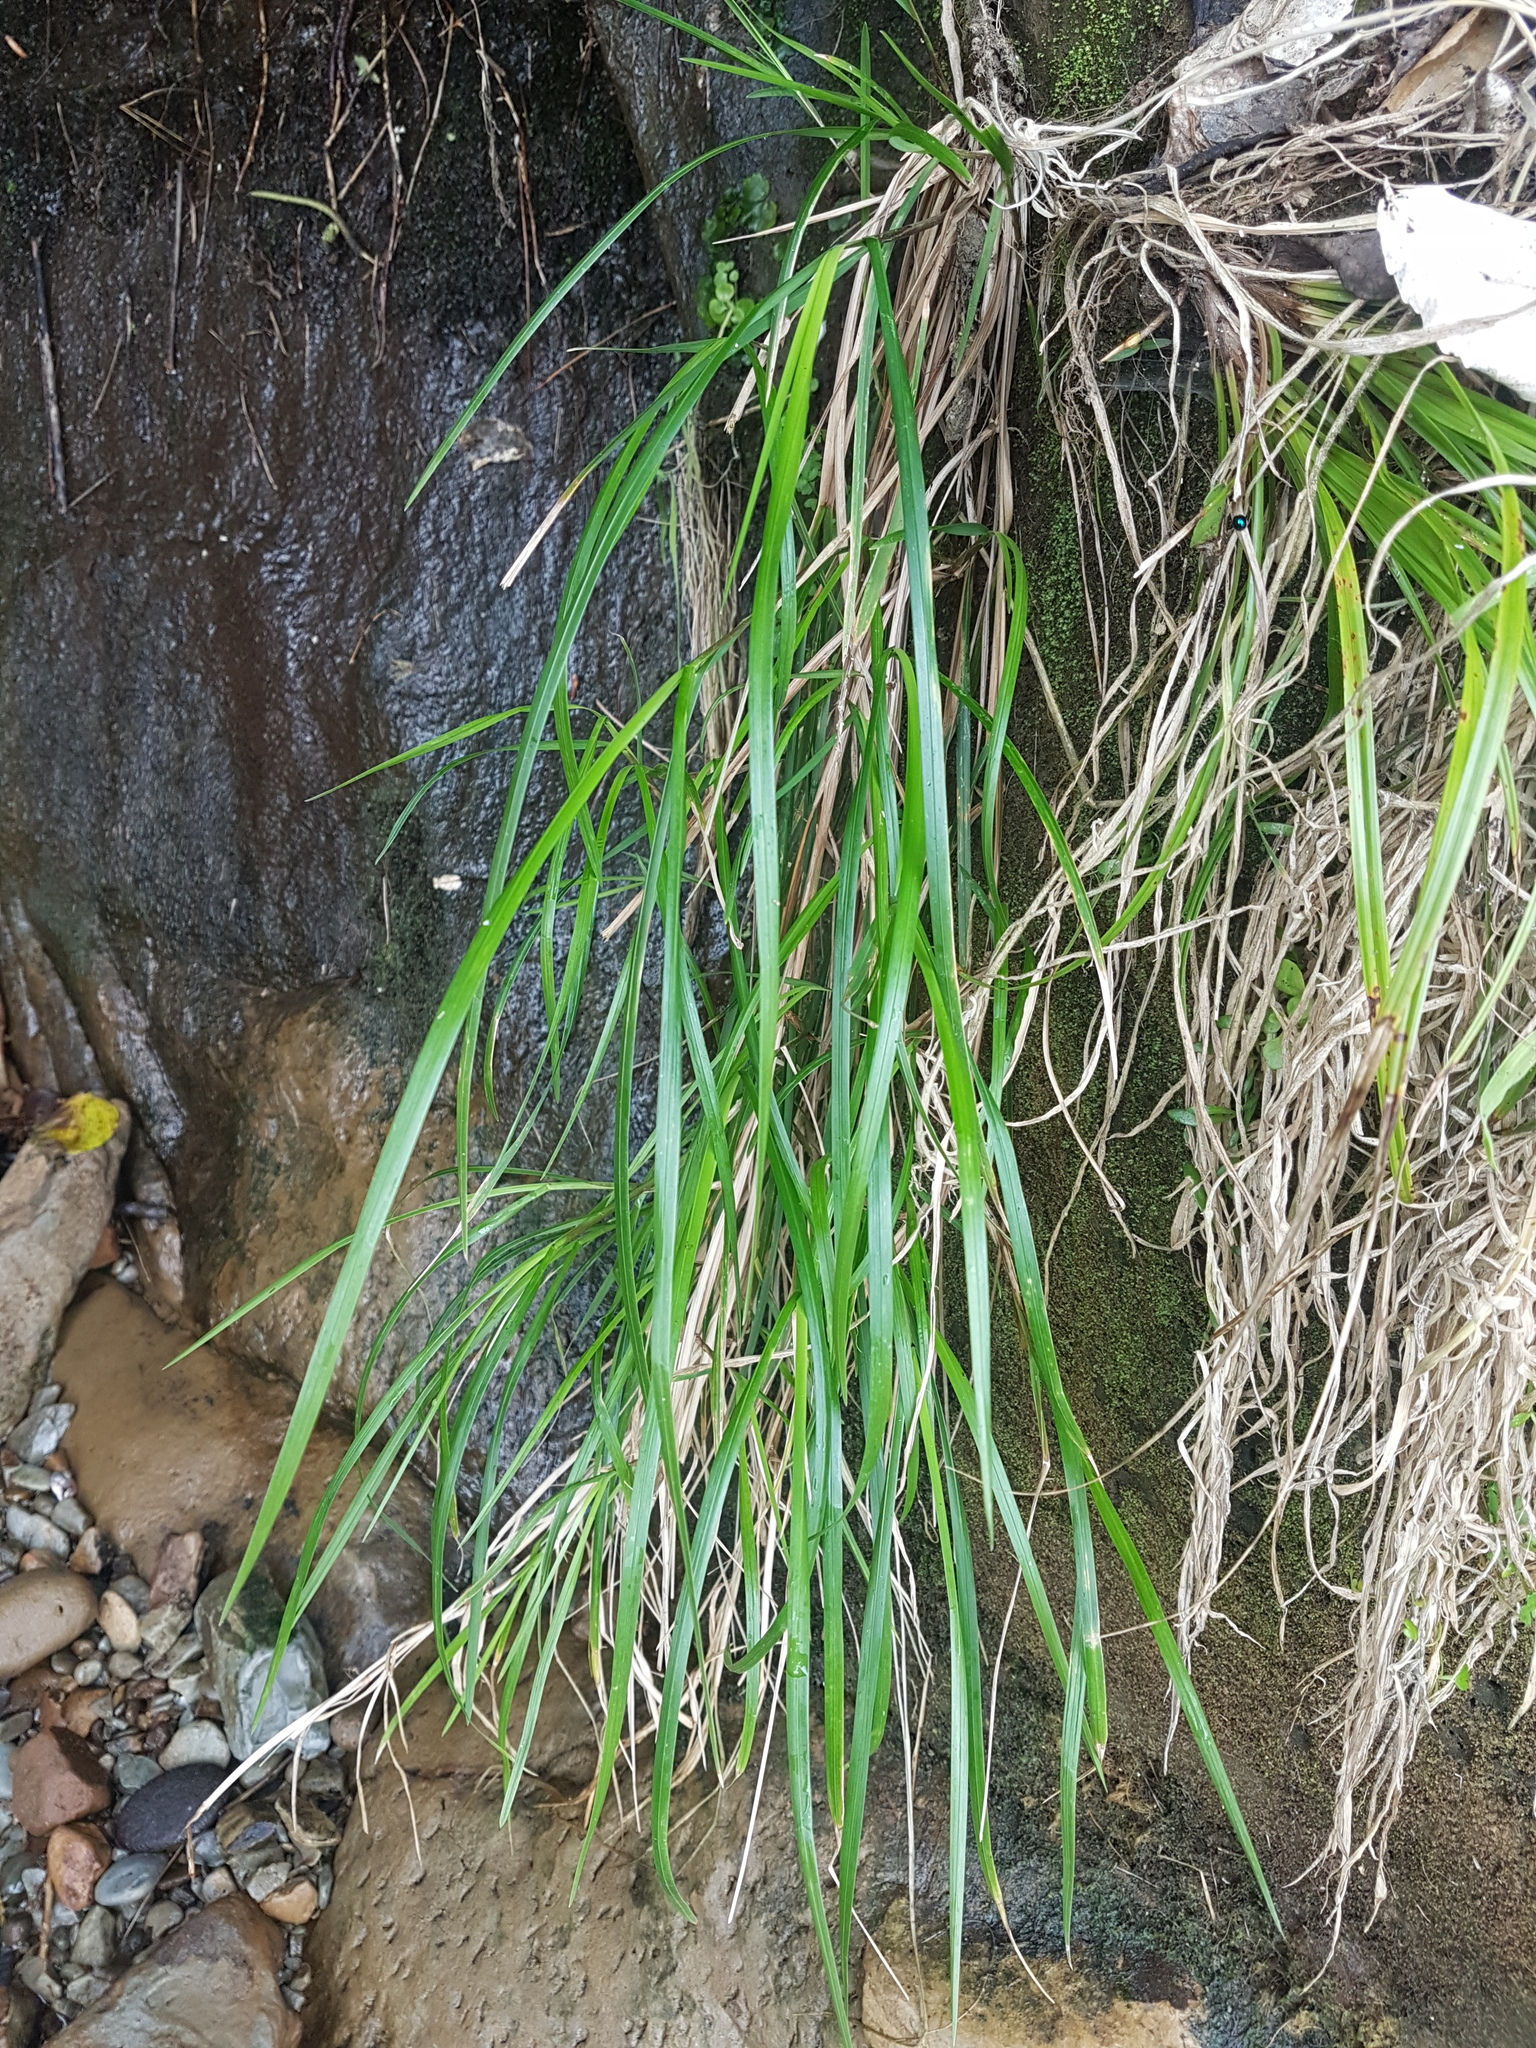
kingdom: Plantae
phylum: Tracheophyta
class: Liliopsida
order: Poales
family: Poaceae
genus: Poa
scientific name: Poa anceps
